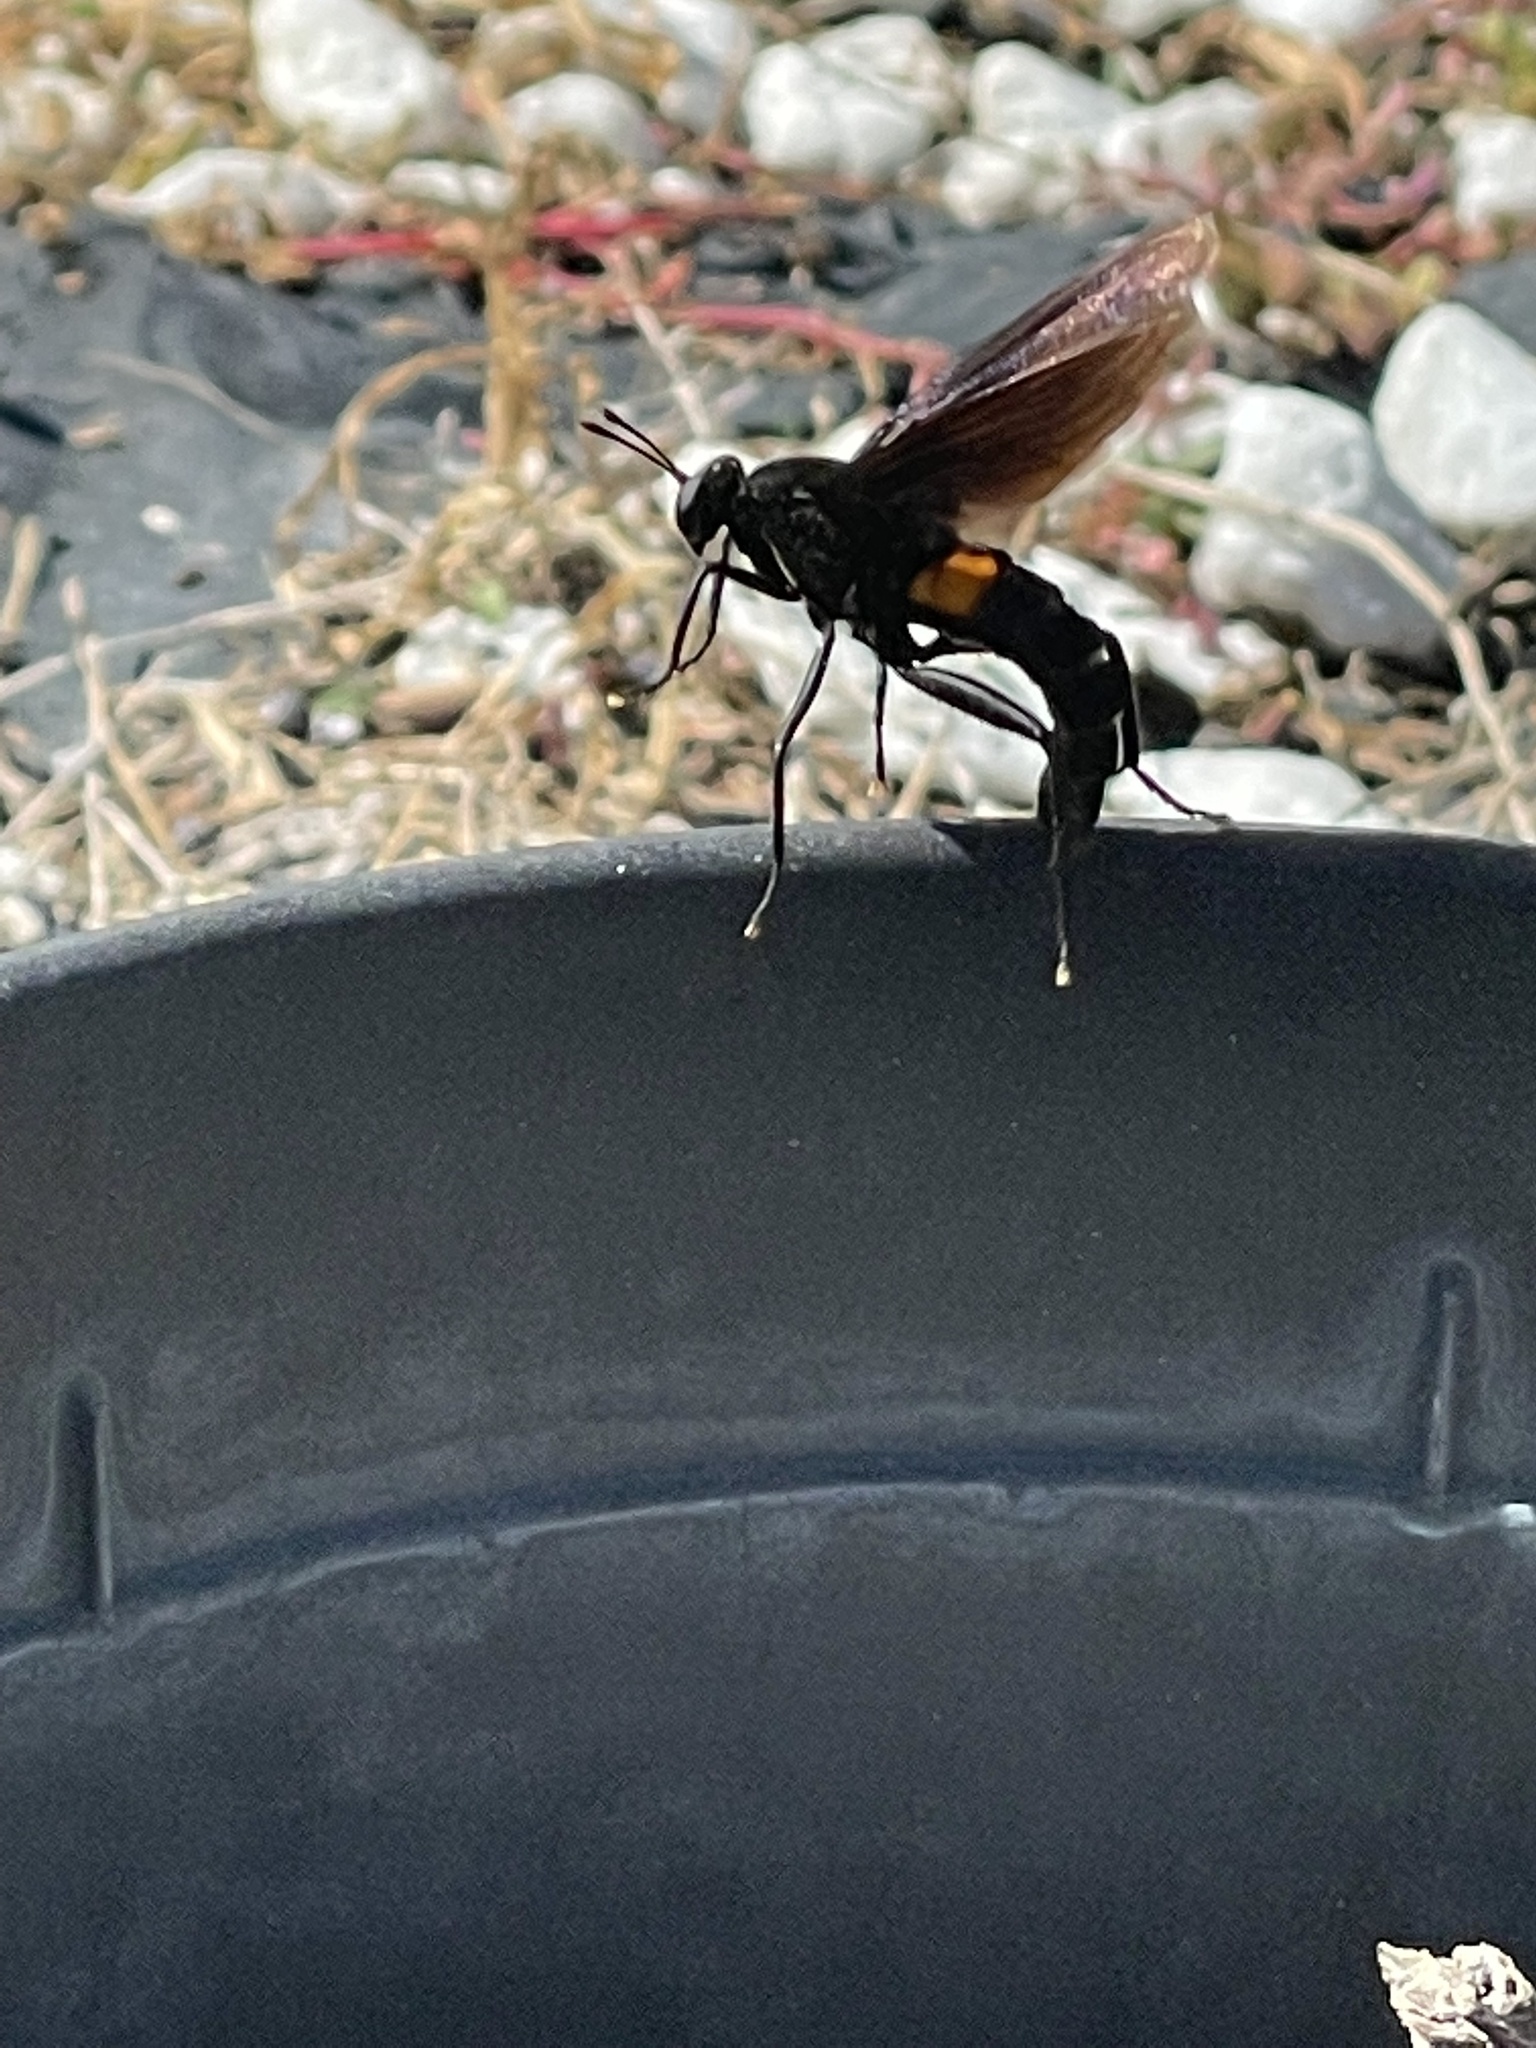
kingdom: Animalia
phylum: Arthropoda
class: Insecta
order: Diptera
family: Mydidae
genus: Mydas
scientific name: Mydas clavatus
